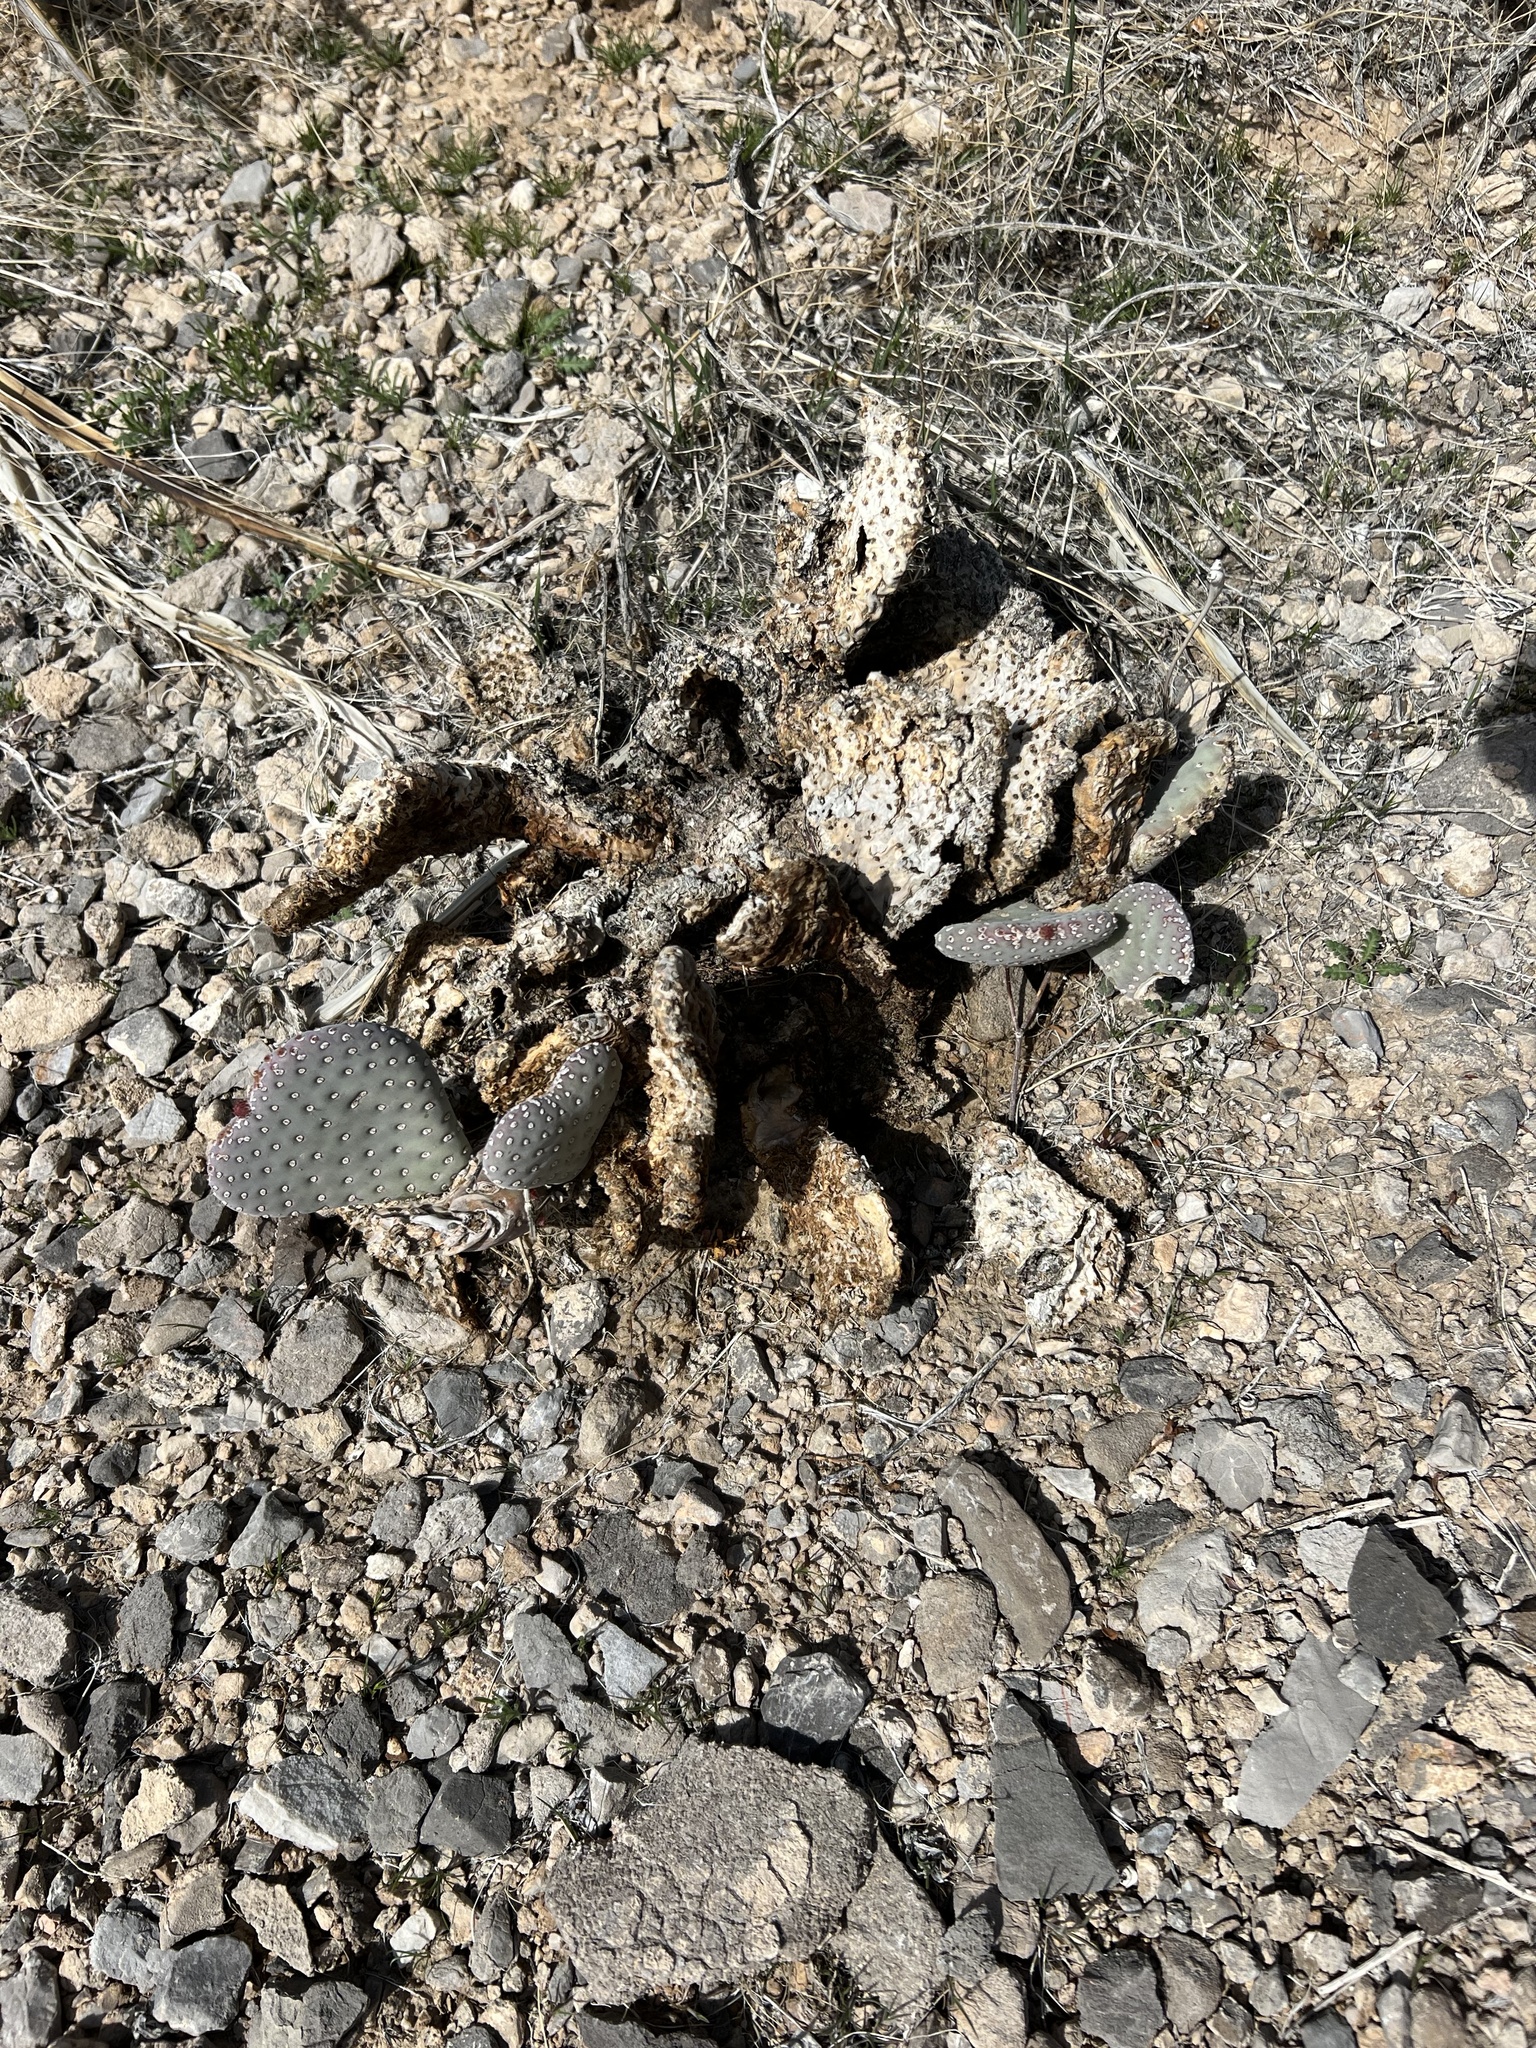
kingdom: Plantae
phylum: Tracheophyta
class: Magnoliopsida
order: Caryophyllales
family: Cactaceae
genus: Opuntia
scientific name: Opuntia basilaris
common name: Beavertail prickly-pear
